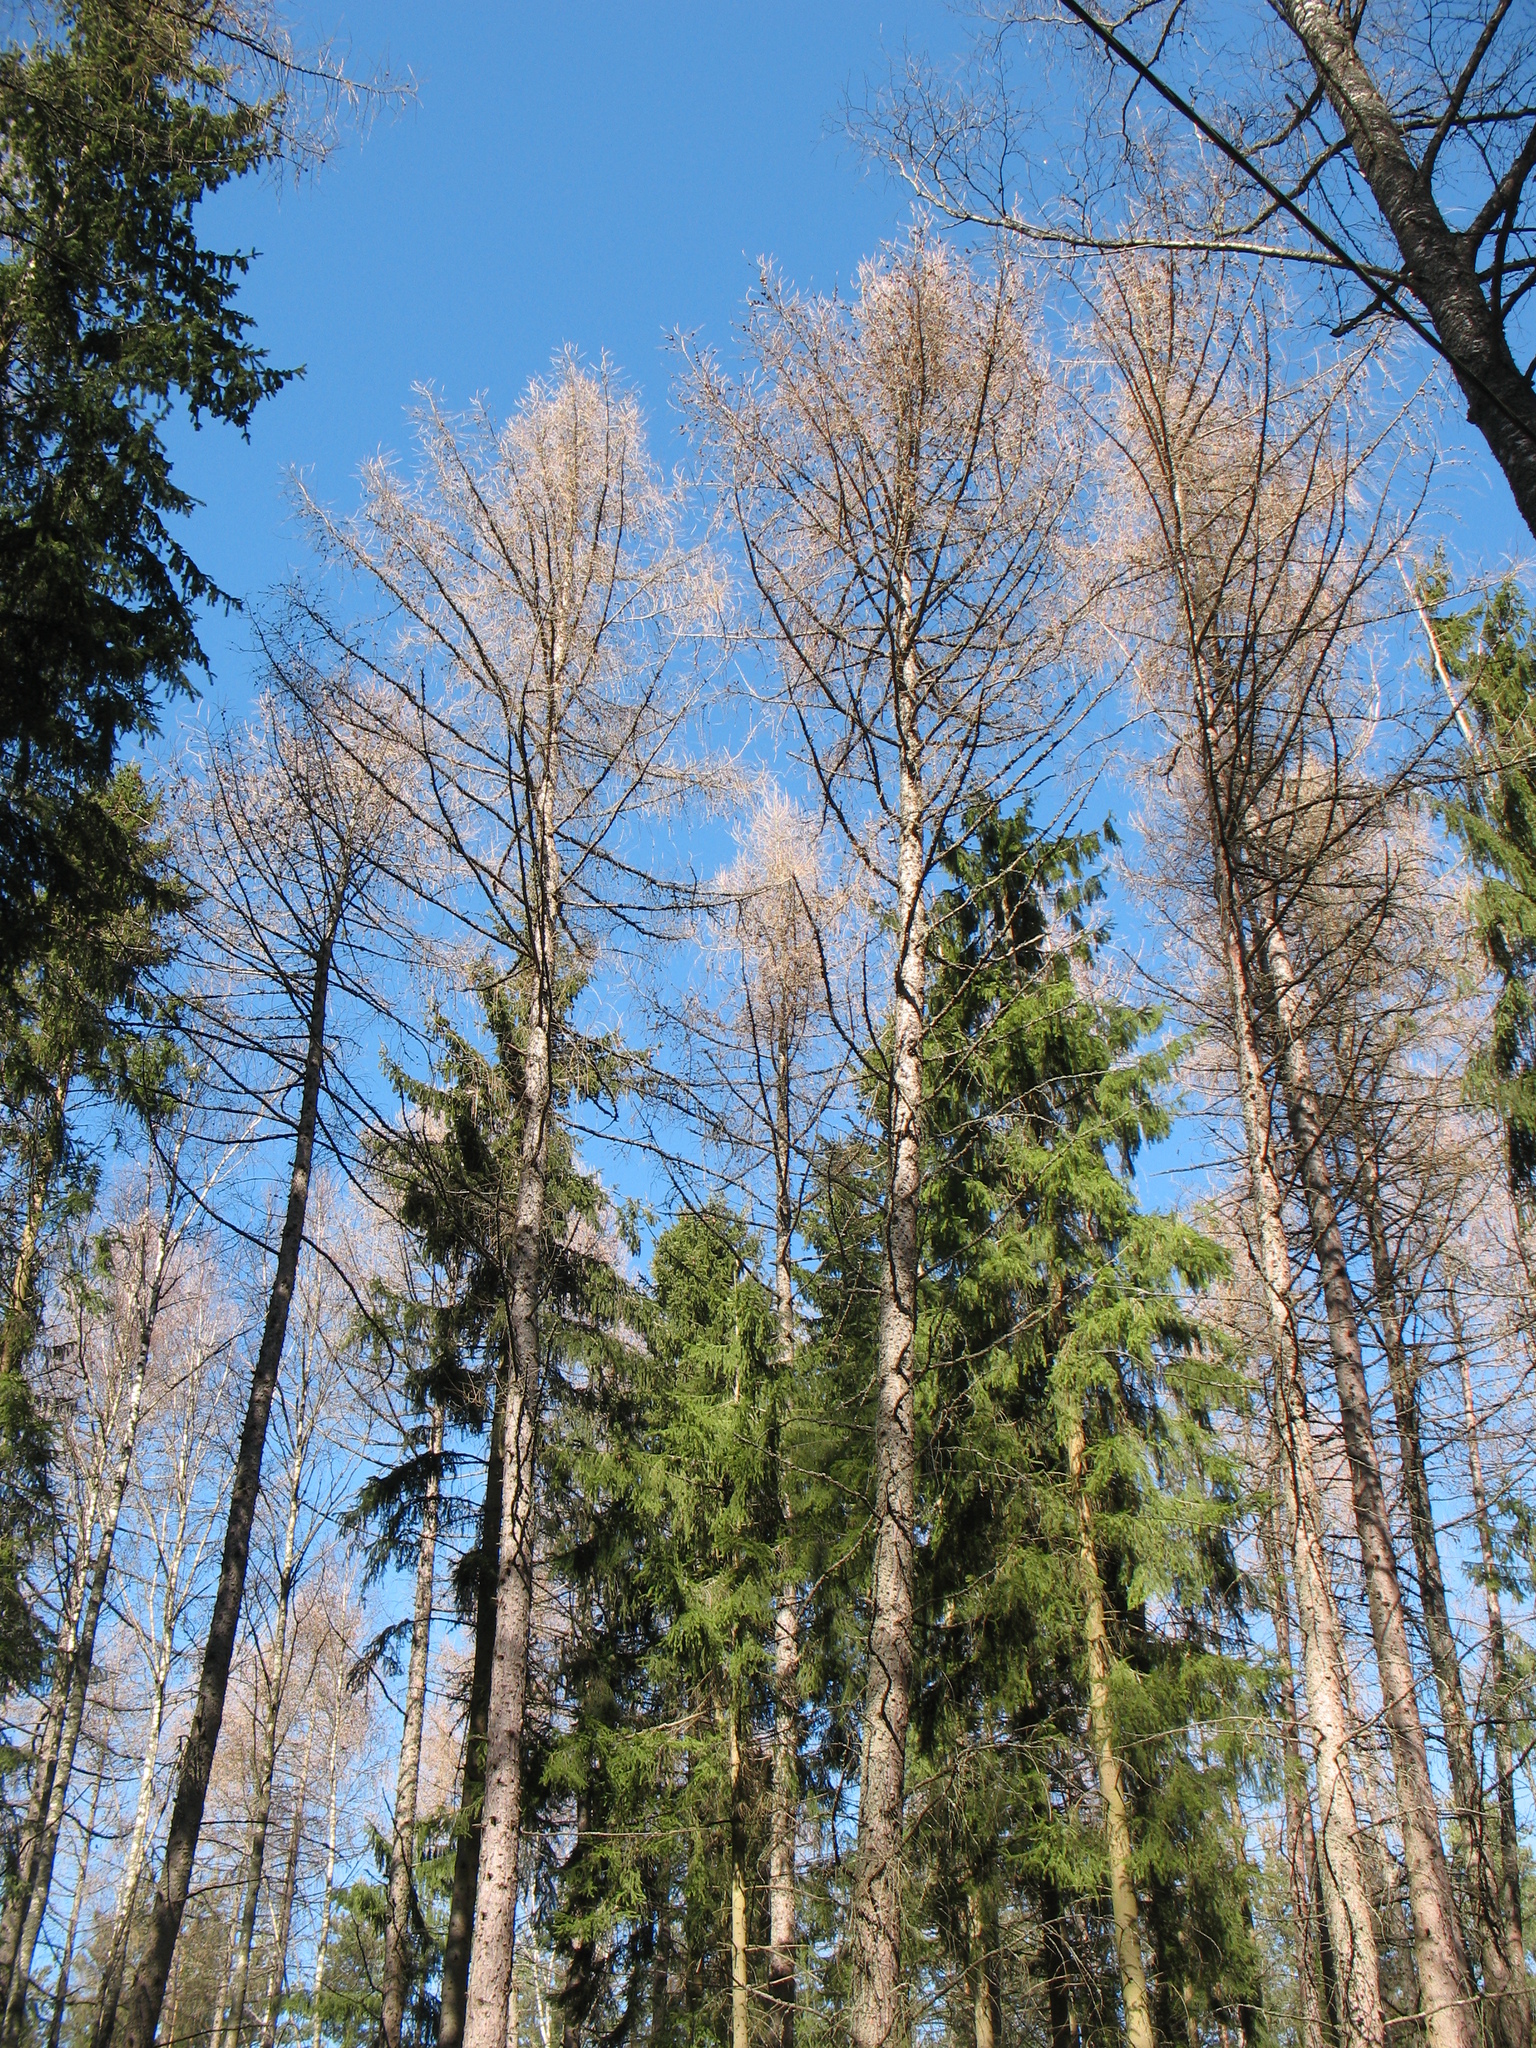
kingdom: Plantae
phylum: Tracheophyta
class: Pinopsida
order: Pinales
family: Pinaceae
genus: Larix
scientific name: Larix decidua
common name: European larch
